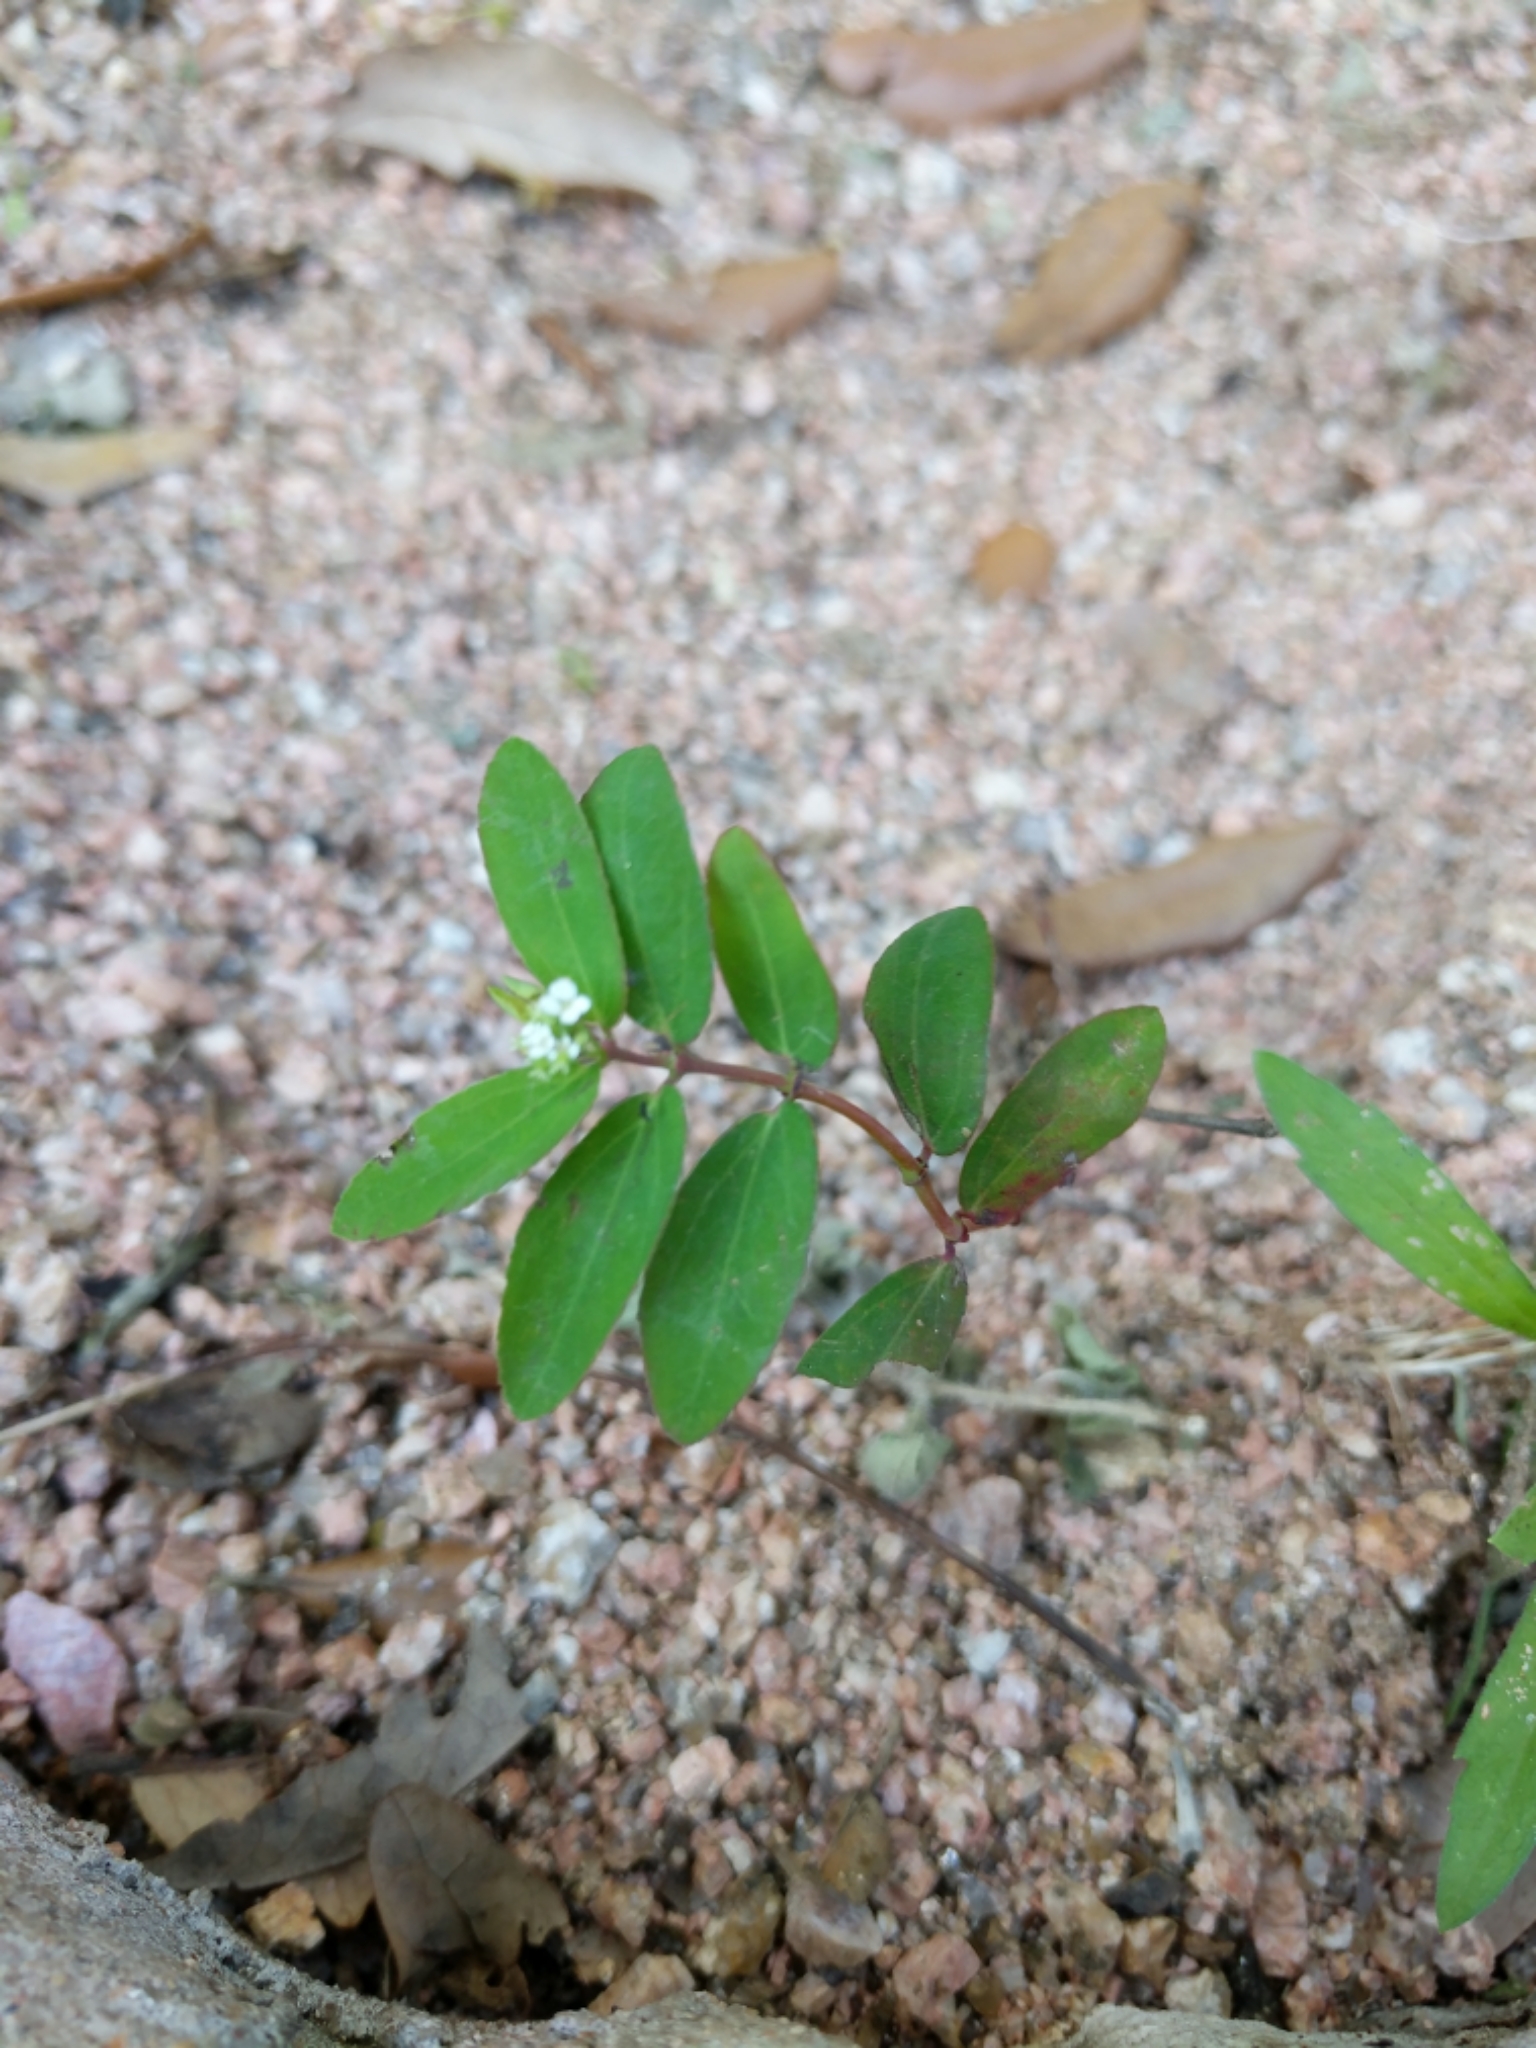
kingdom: Plantae
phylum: Tracheophyta
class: Magnoliopsida
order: Malpighiales
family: Euphorbiaceae
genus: Euphorbia
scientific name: Euphorbia hypericifolia
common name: Graceful sandmat
